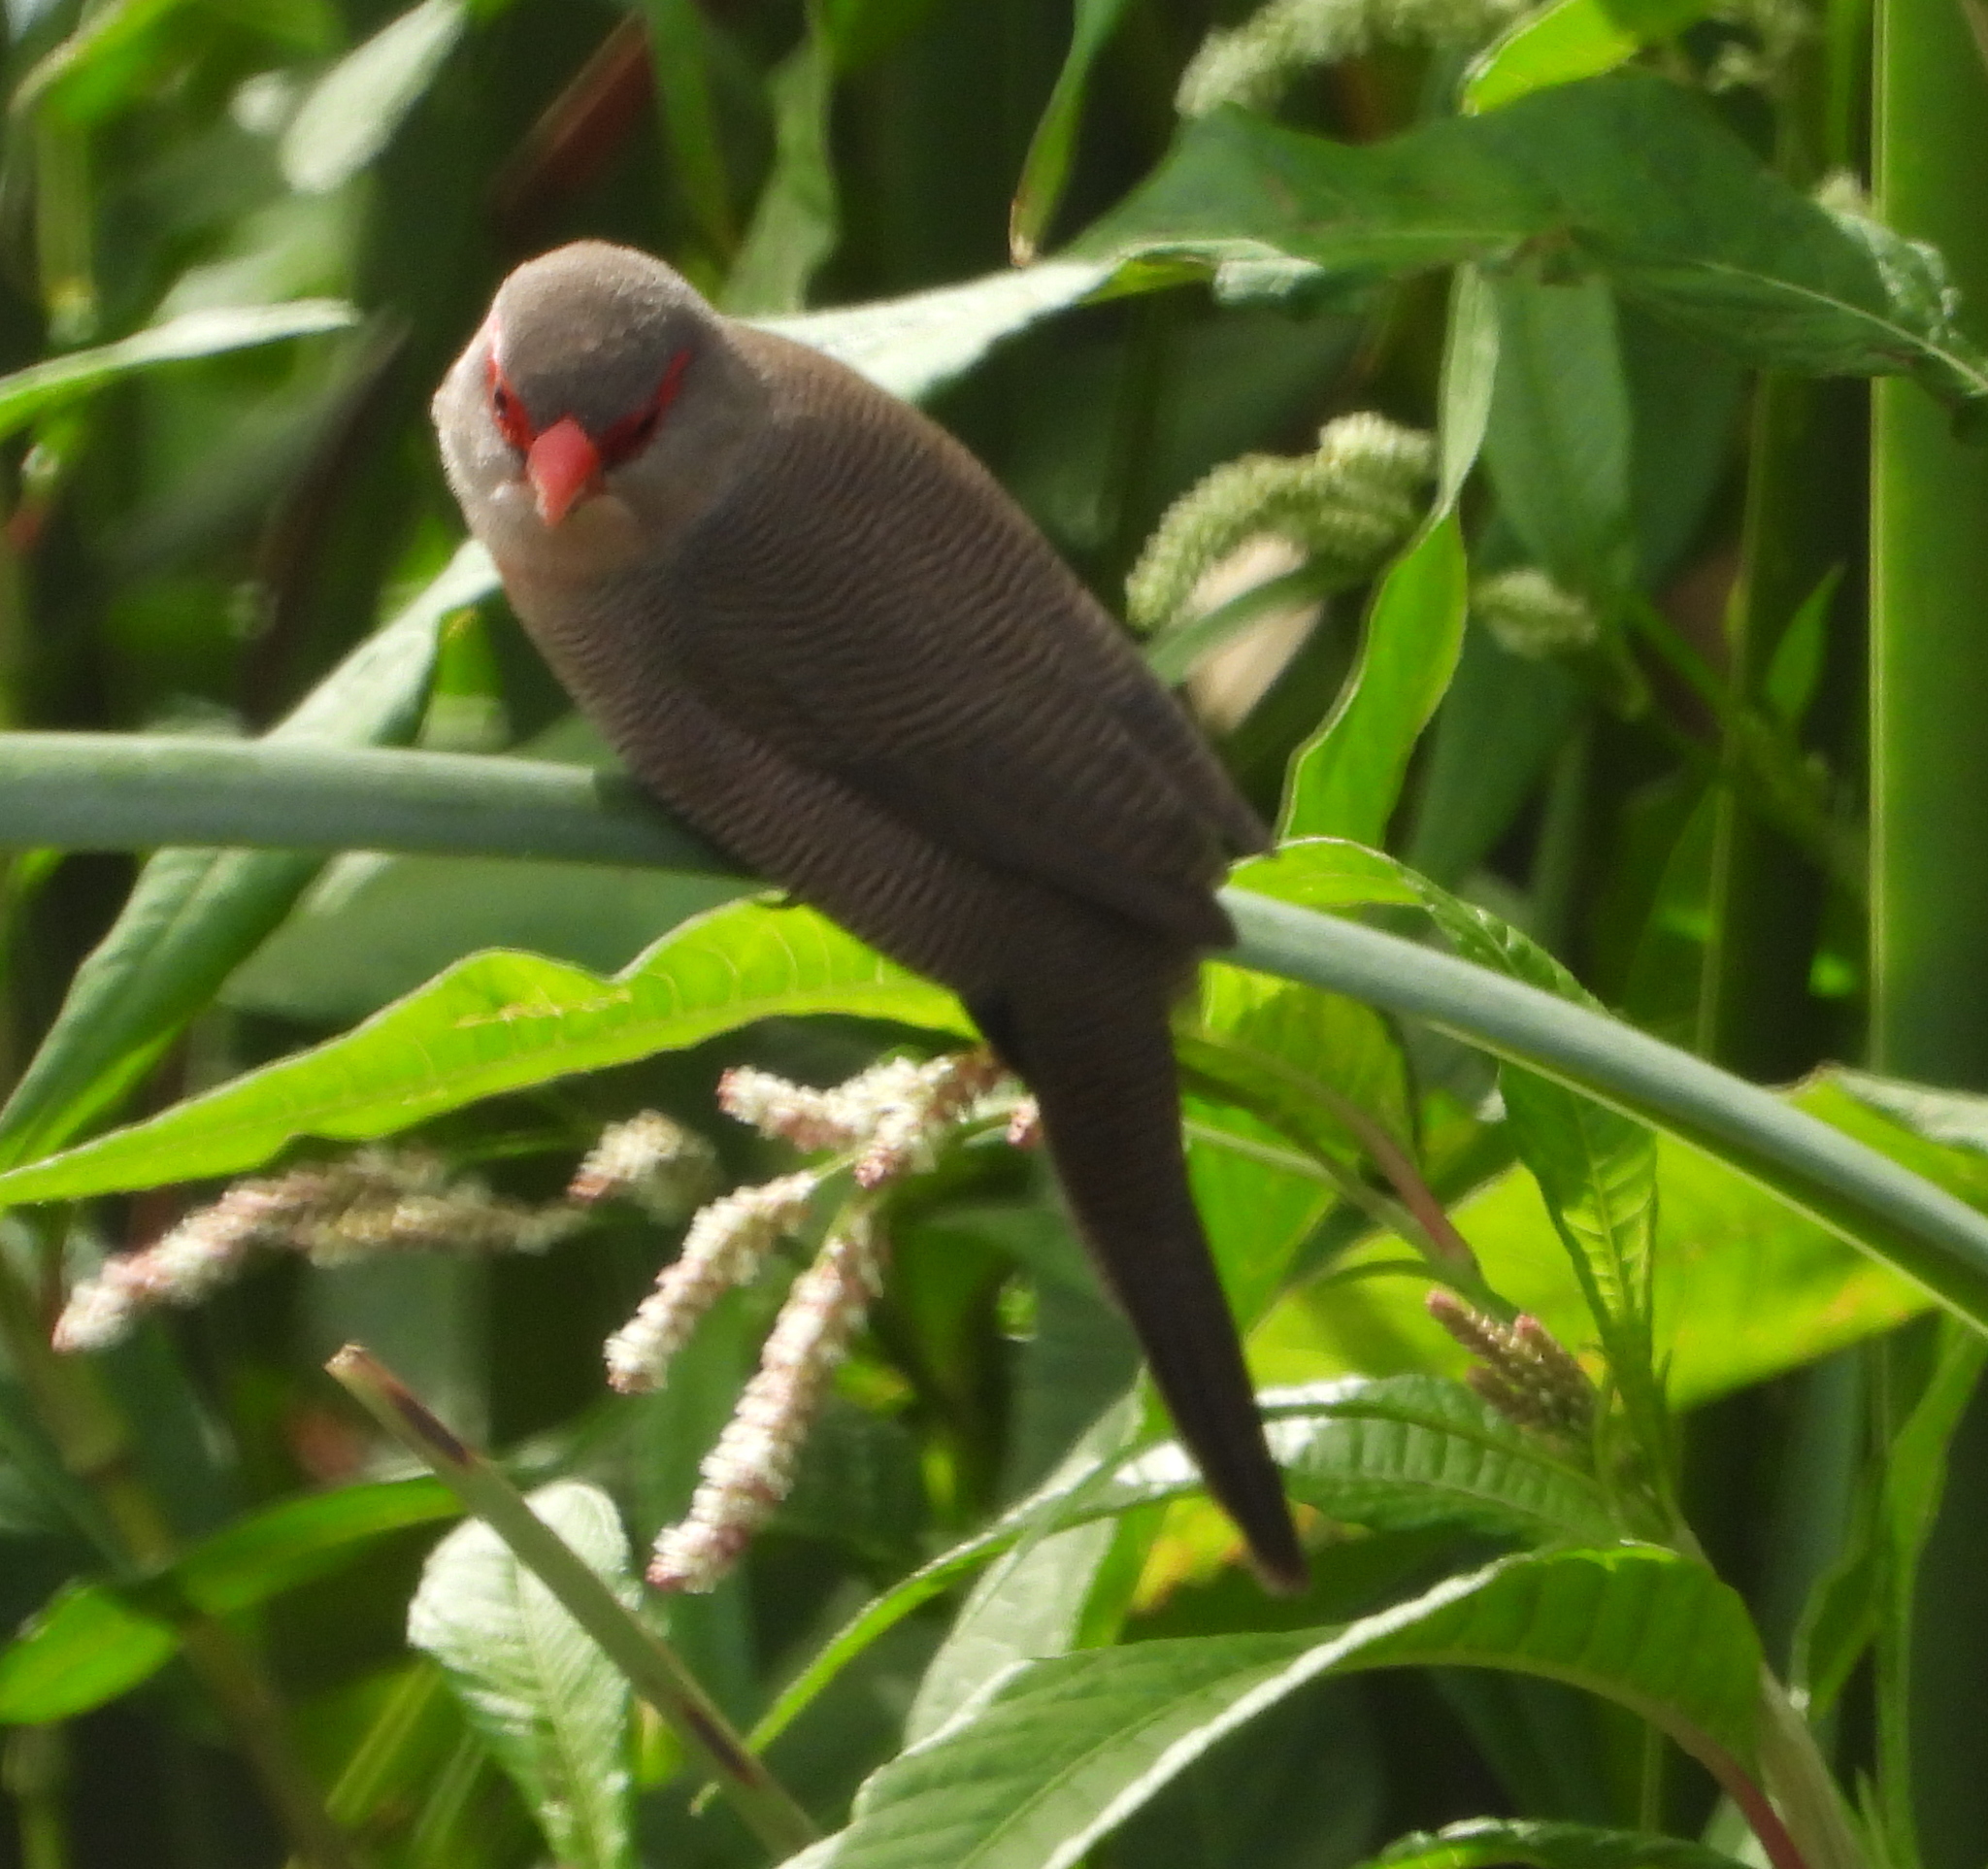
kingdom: Animalia
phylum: Chordata
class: Aves
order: Passeriformes
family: Estrildidae
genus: Estrilda
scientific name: Estrilda astrild
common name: Common waxbill
